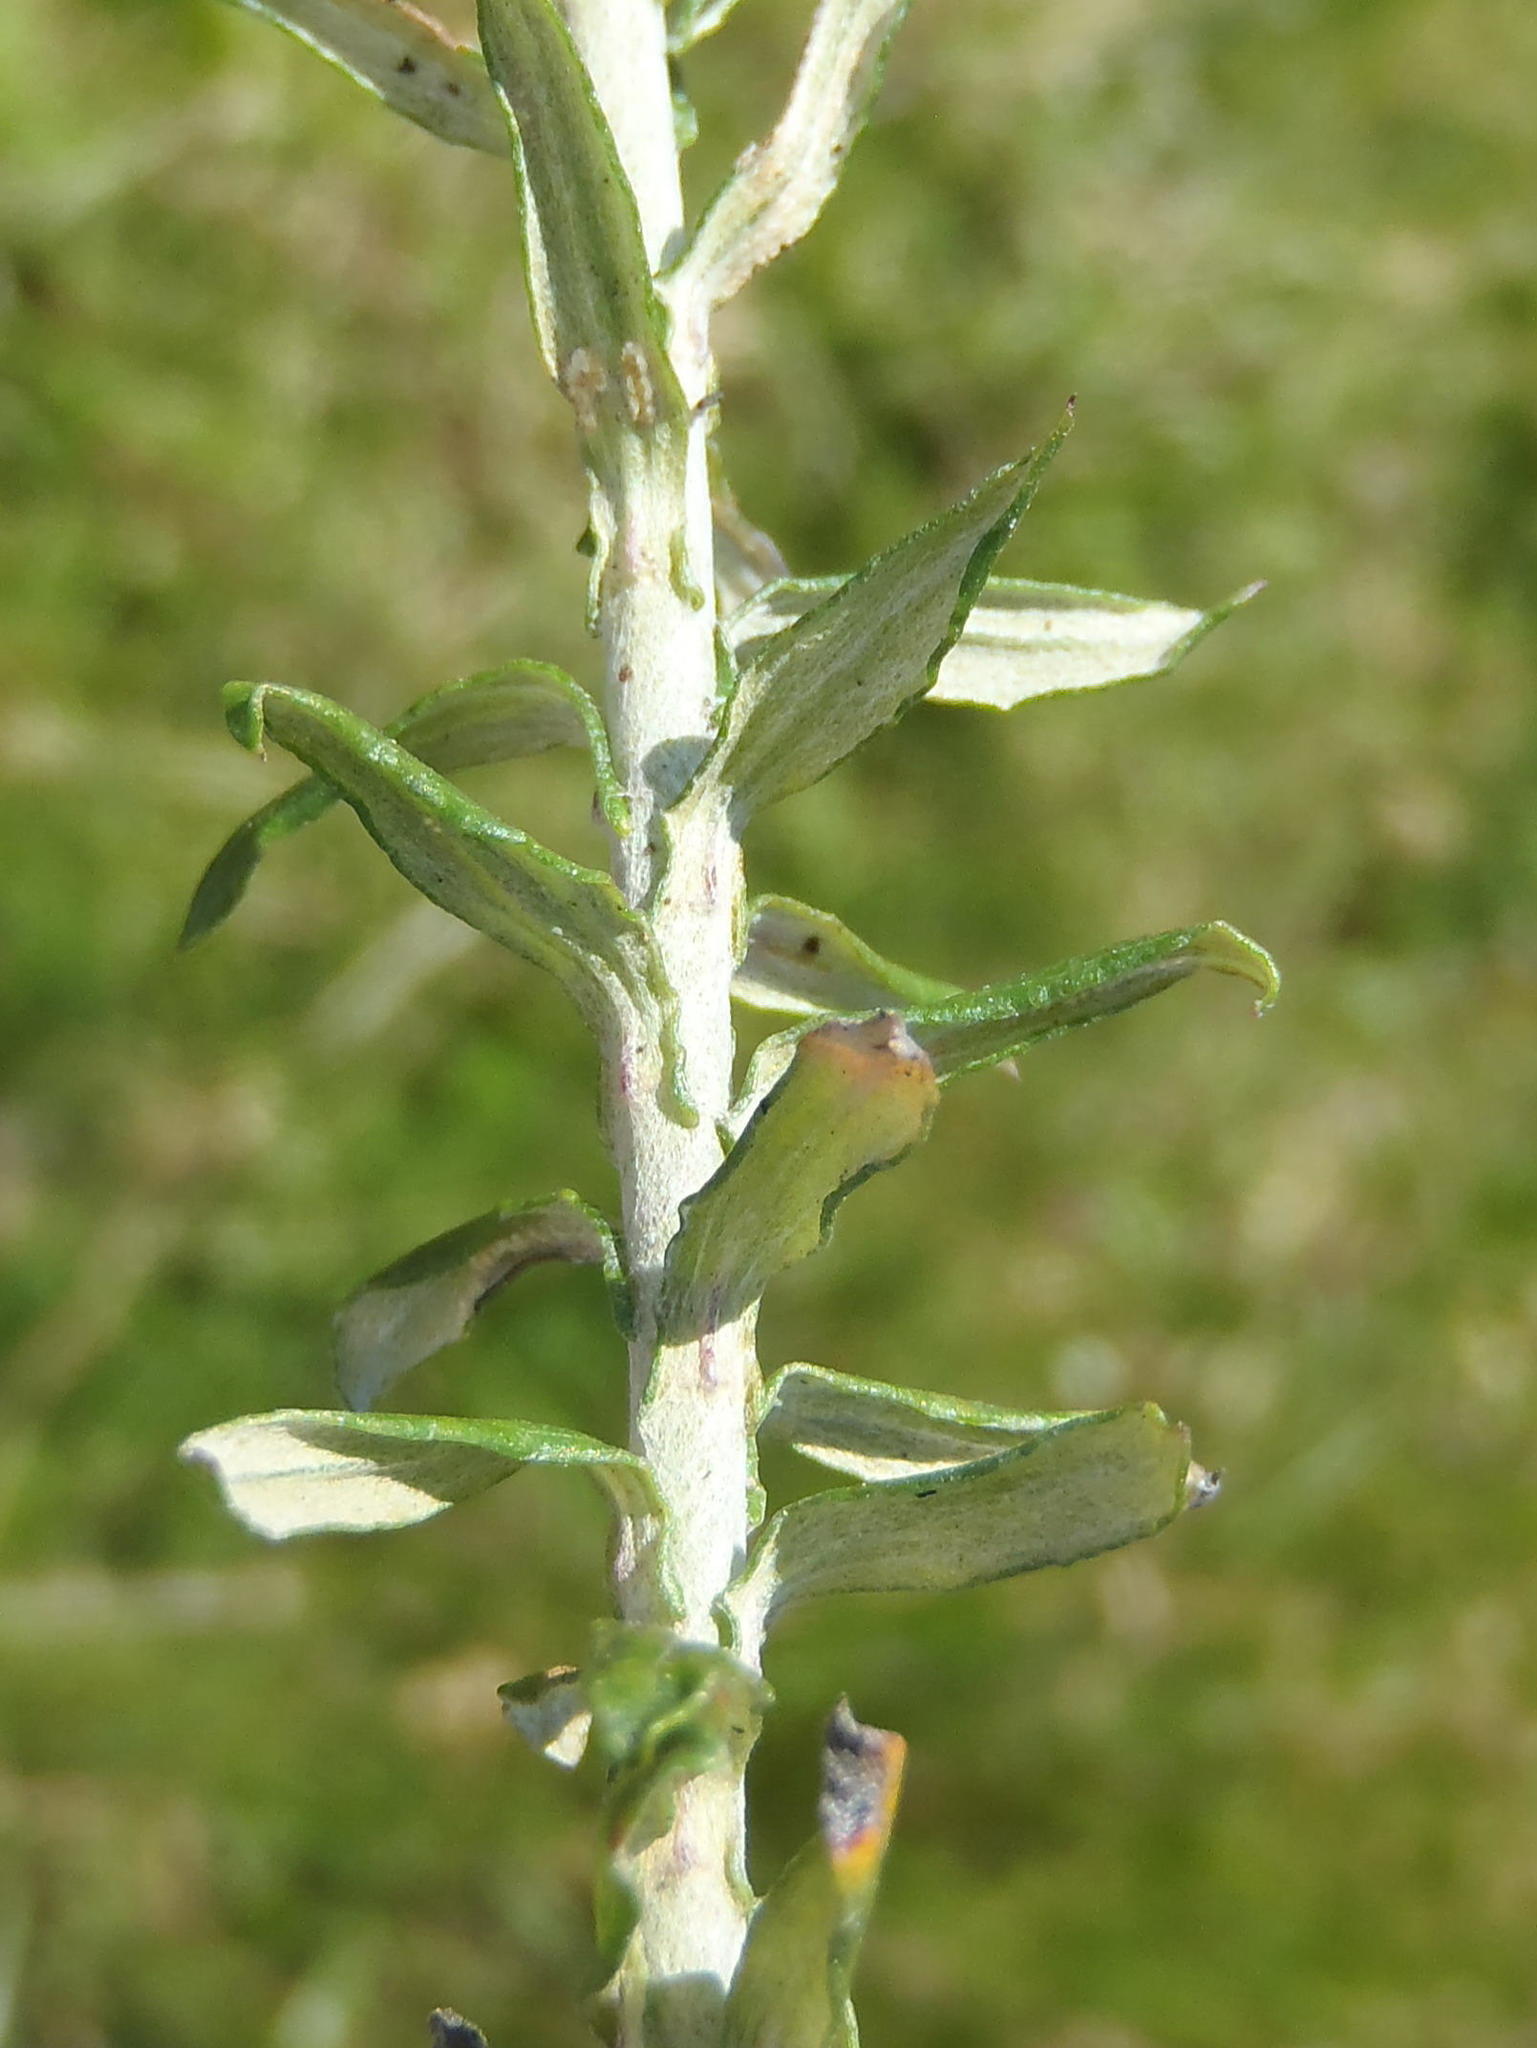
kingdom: Plantae
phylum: Tracheophyta
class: Magnoliopsida
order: Asterales
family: Asteraceae
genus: Helichrysum
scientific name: Helichrysum cymosum
